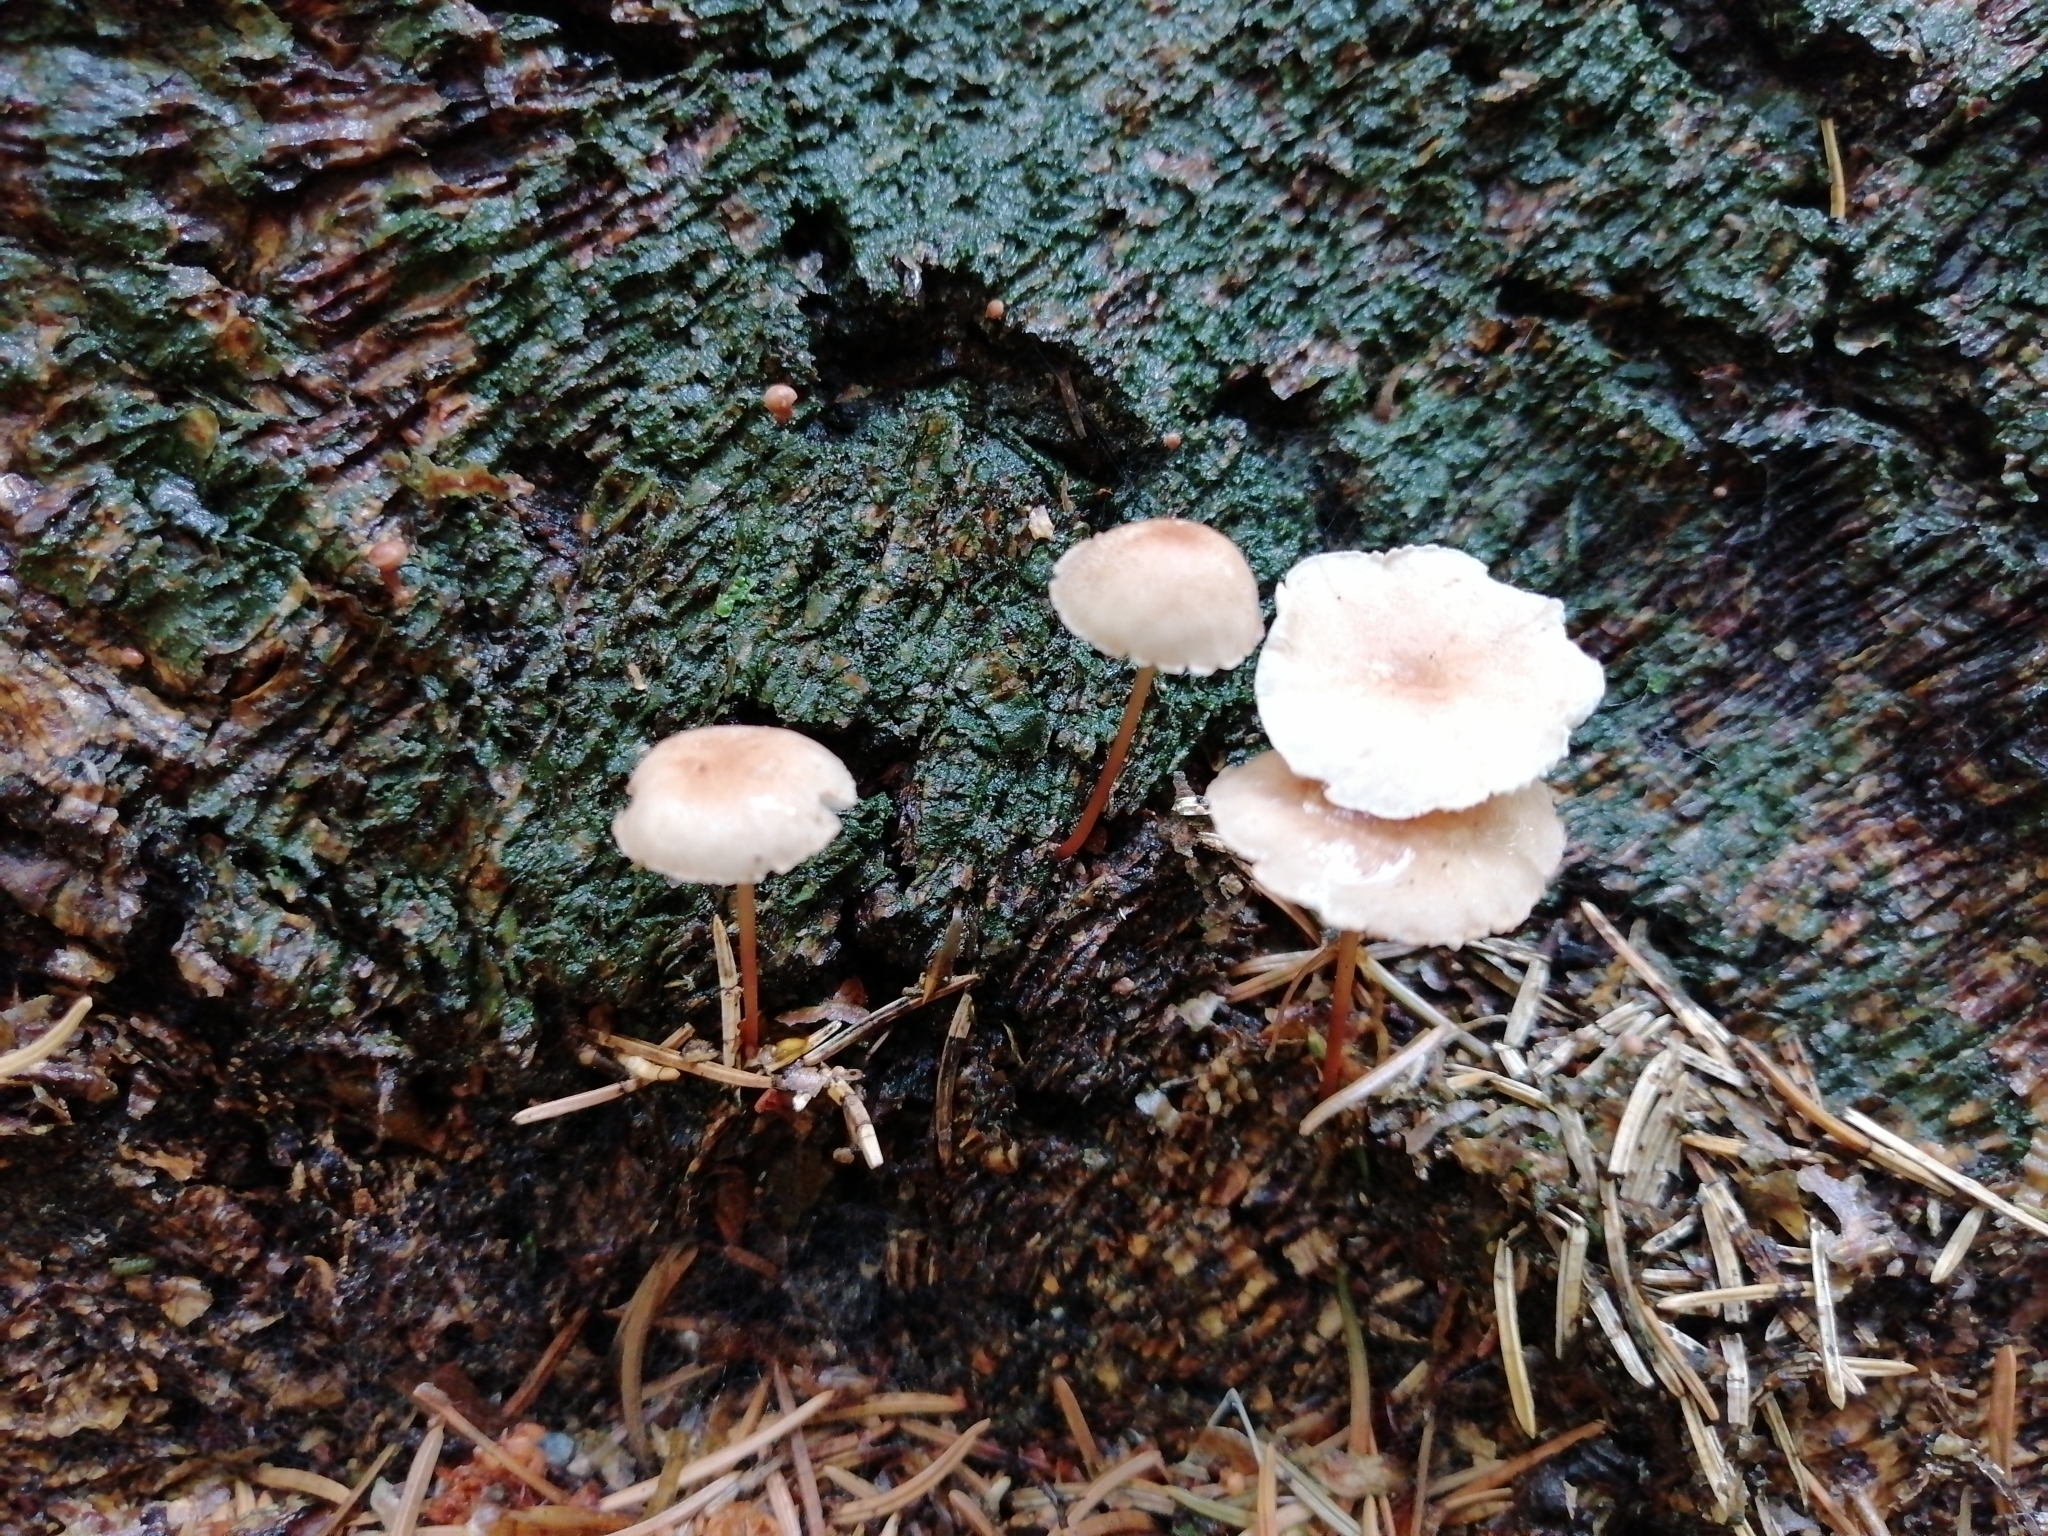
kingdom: Fungi
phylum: Basidiomycota
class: Agaricomycetes
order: Agaricales
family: Omphalotaceae
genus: Mycetinis
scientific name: Mycetinis scorodonius
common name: Vampires bane
